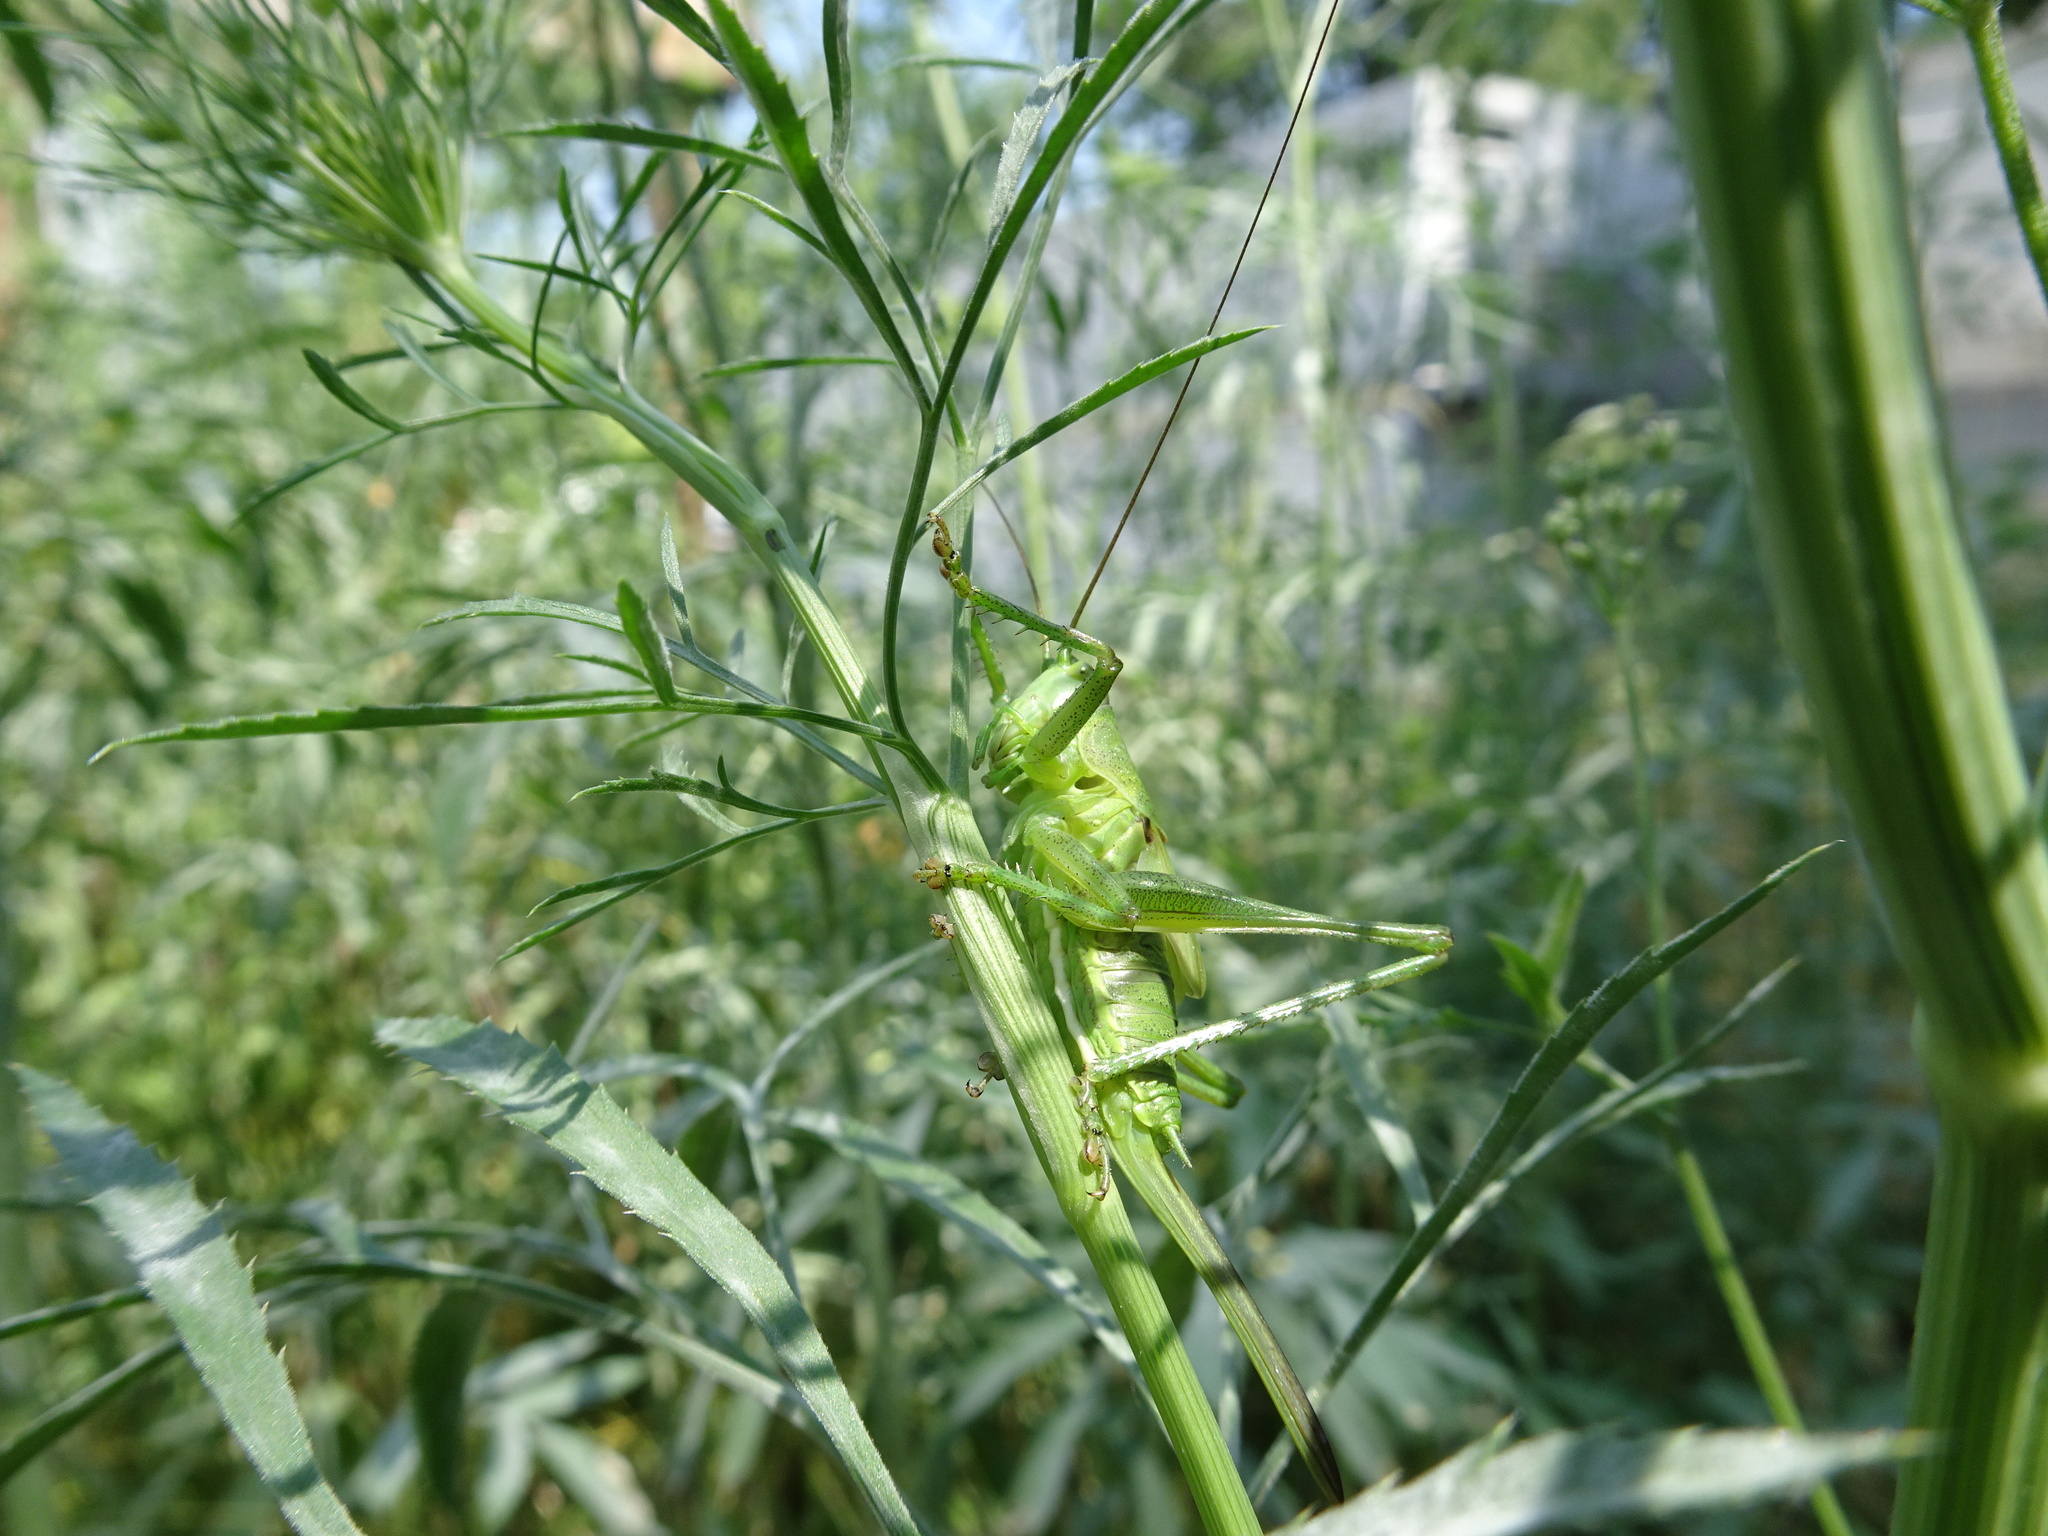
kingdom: Animalia
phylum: Arthropoda
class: Insecta
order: Orthoptera
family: Tettigoniidae
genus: Tettigonia
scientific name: Tettigonia viridissima
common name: Great green bush-cricket
